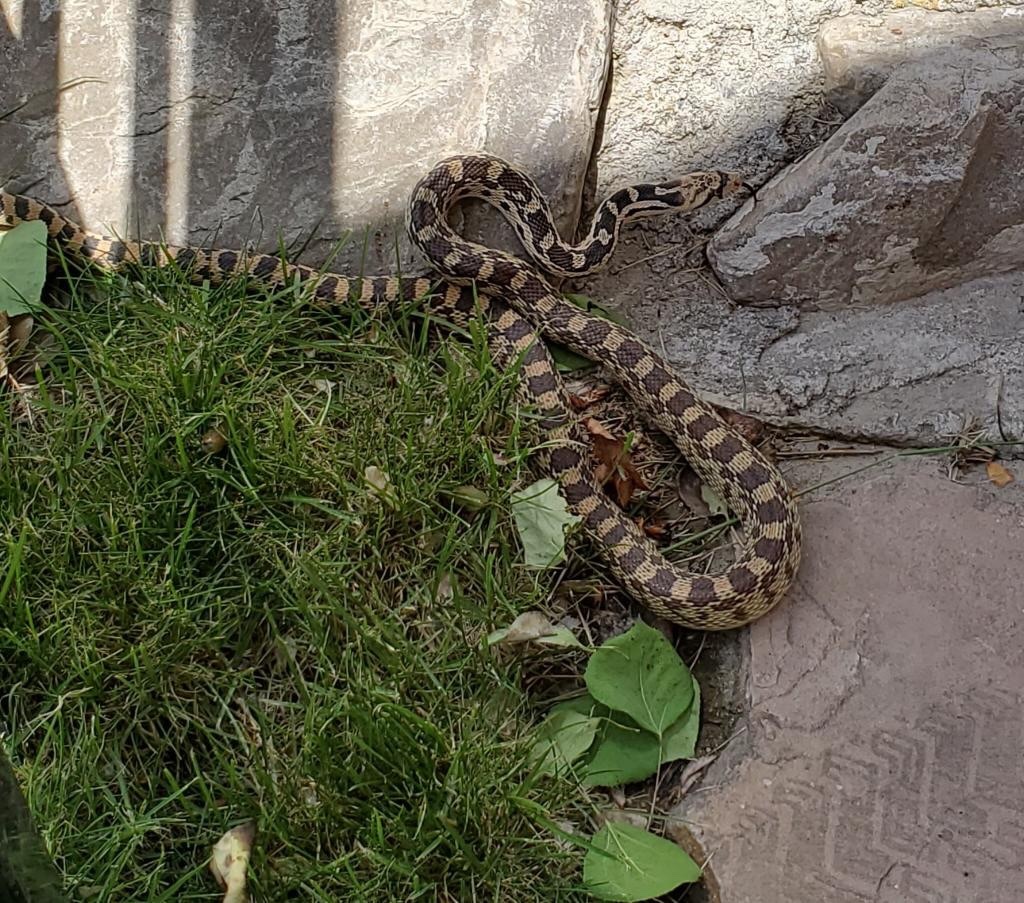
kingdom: Animalia
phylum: Chordata
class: Squamata
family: Colubridae
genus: Pituophis
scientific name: Pituophis catenifer
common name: Gopher snake
